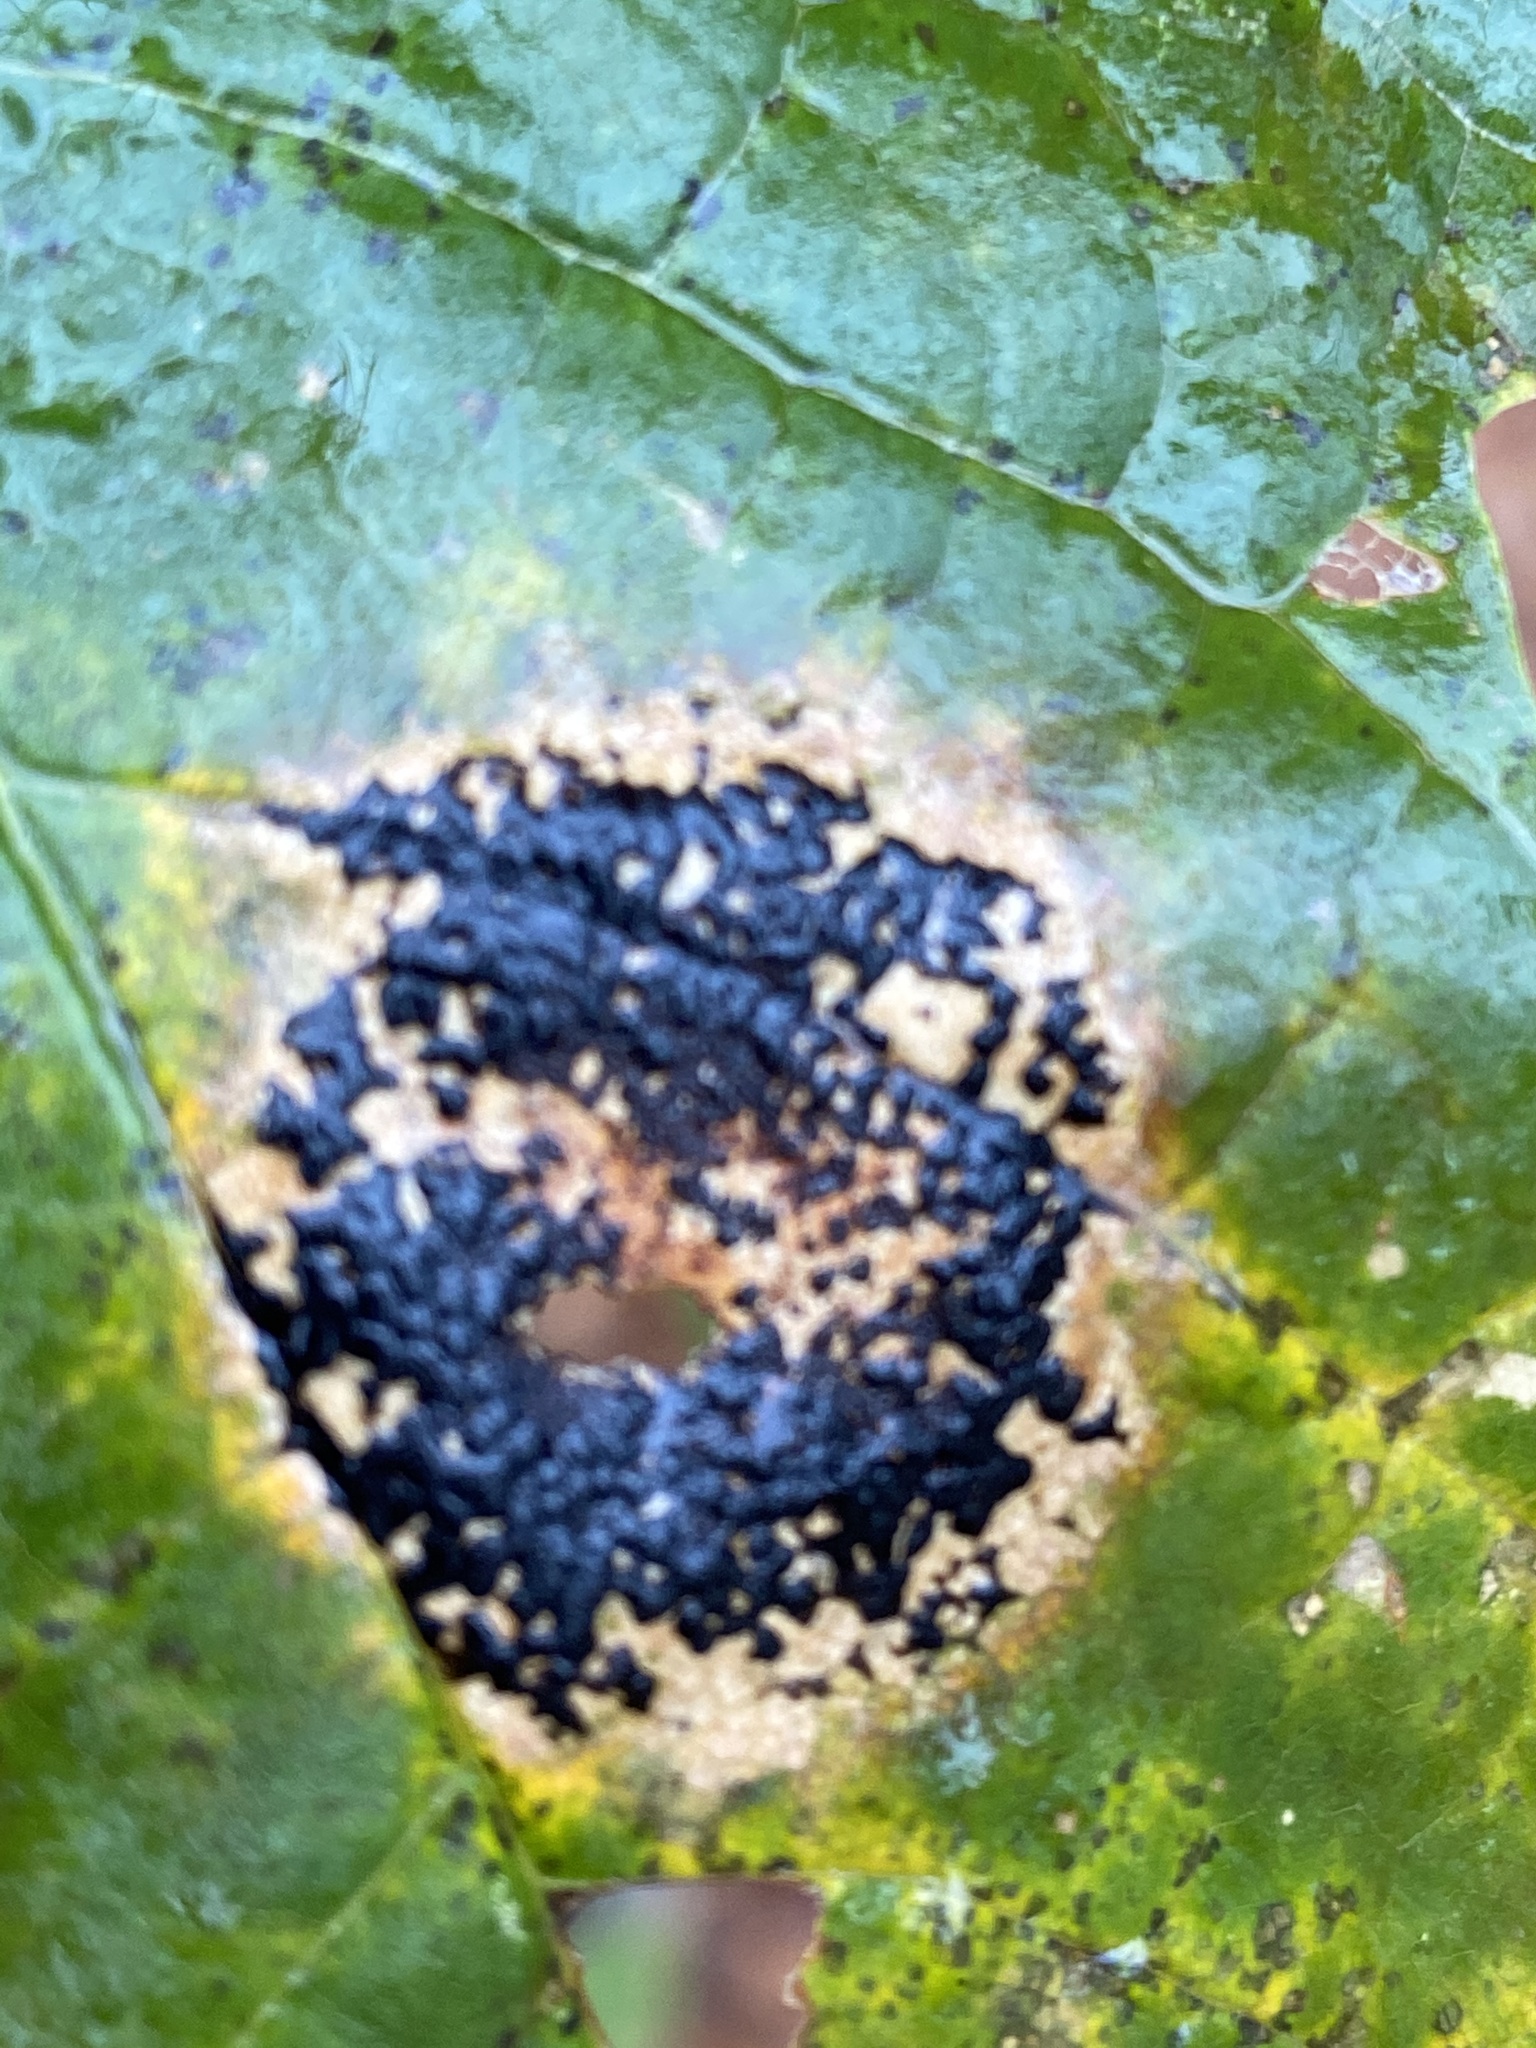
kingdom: Fungi
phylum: Ascomycota
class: Leotiomycetes
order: Rhytismatales
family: Rhytismataceae
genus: Rhytisma
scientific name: Rhytisma acerinum
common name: European tar spot
